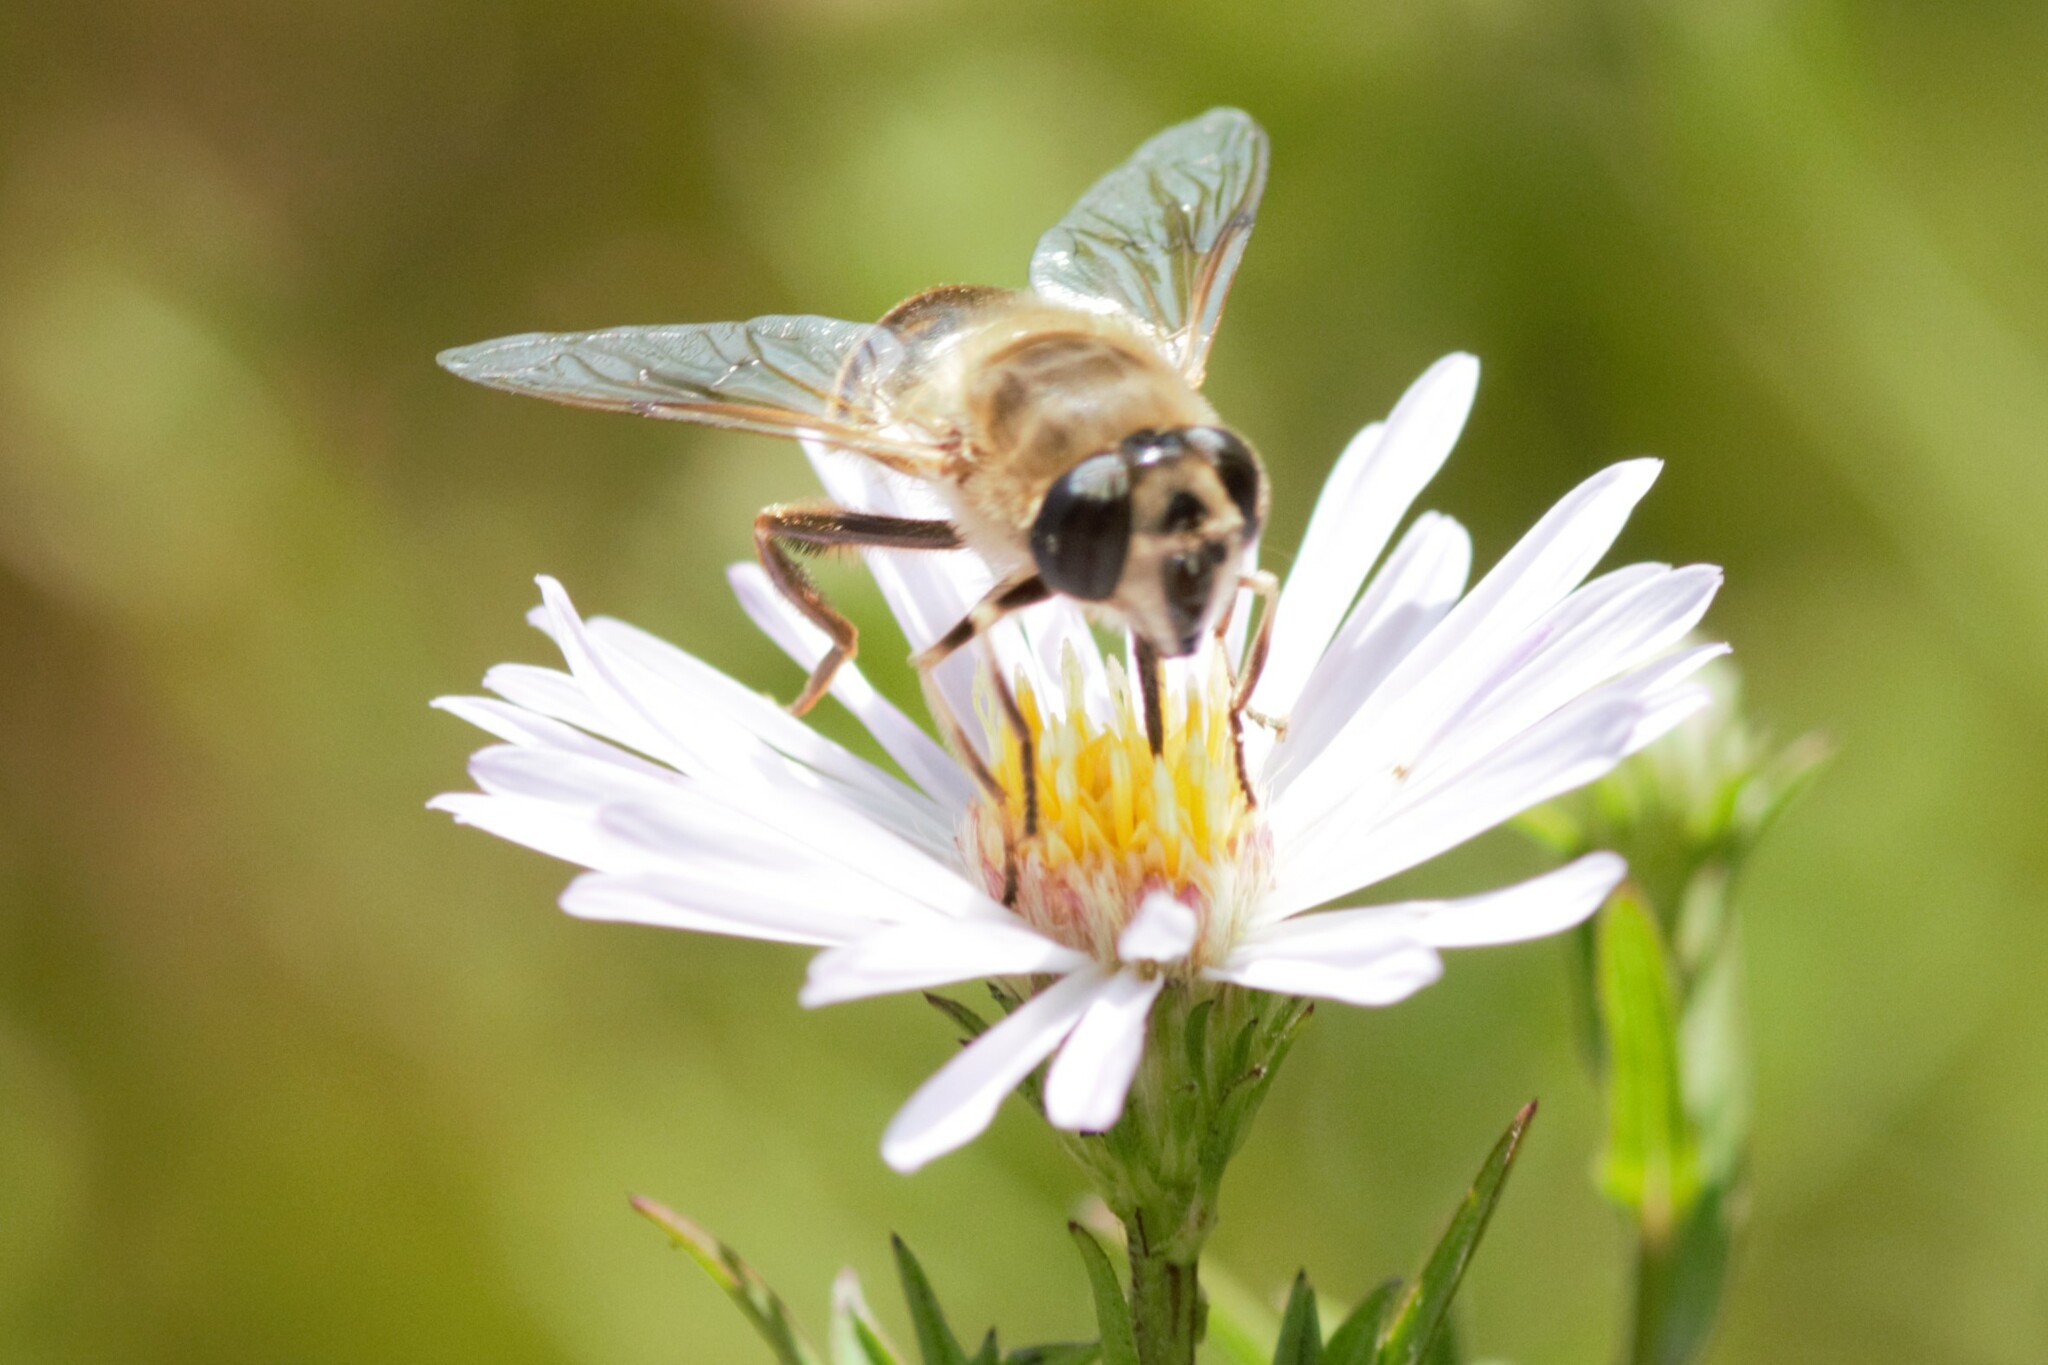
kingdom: Animalia
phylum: Arthropoda
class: Insecta
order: Diptera
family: Syrphidae
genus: Eristalis
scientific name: Eristalis tenax
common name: Drone fly
